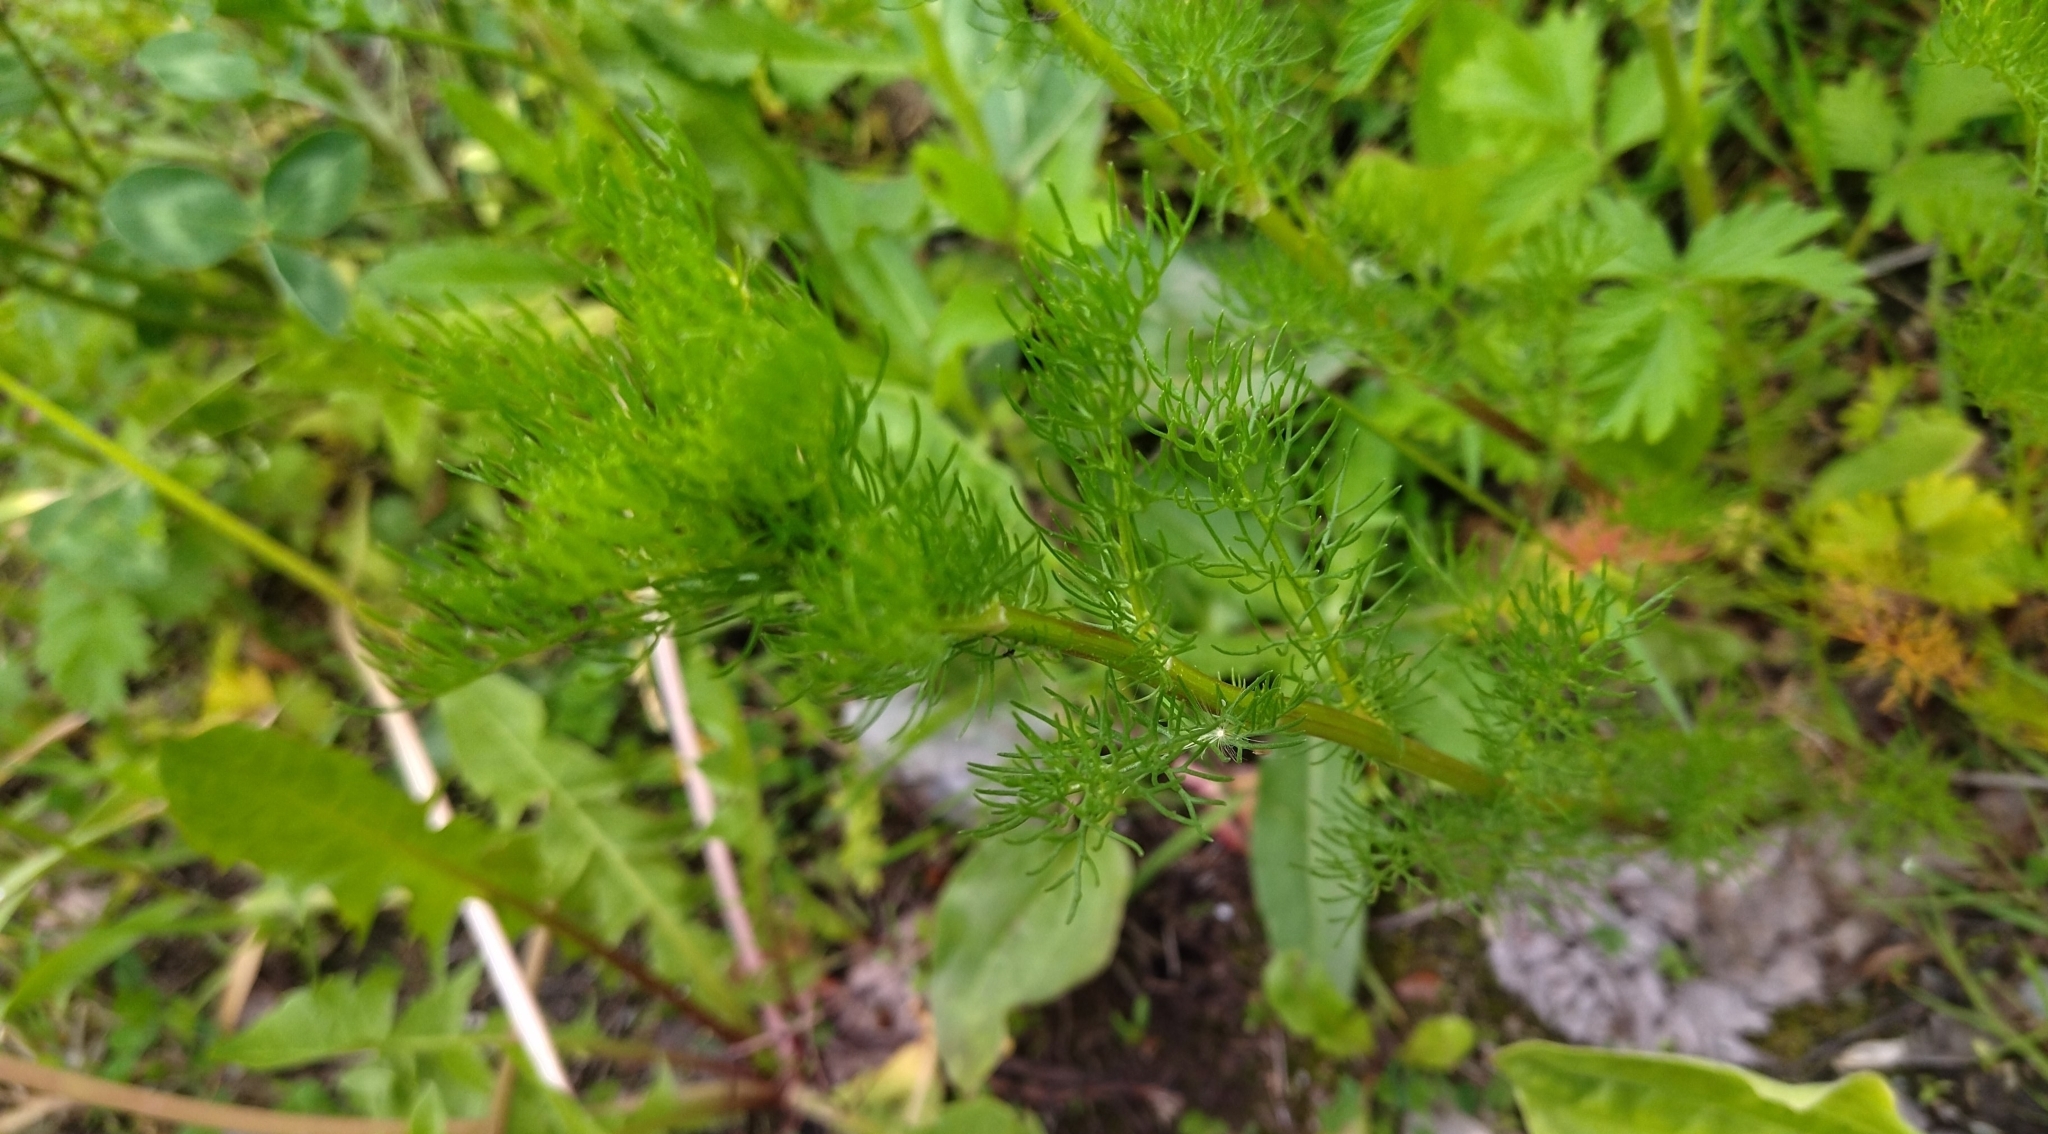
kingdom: Plantae
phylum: Tracheophyta
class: Magnoliopsida
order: Asterales
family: Asteraceae
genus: Tripleurospermum
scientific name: Tripleurospermum inodorum
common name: Scentless mayweed
